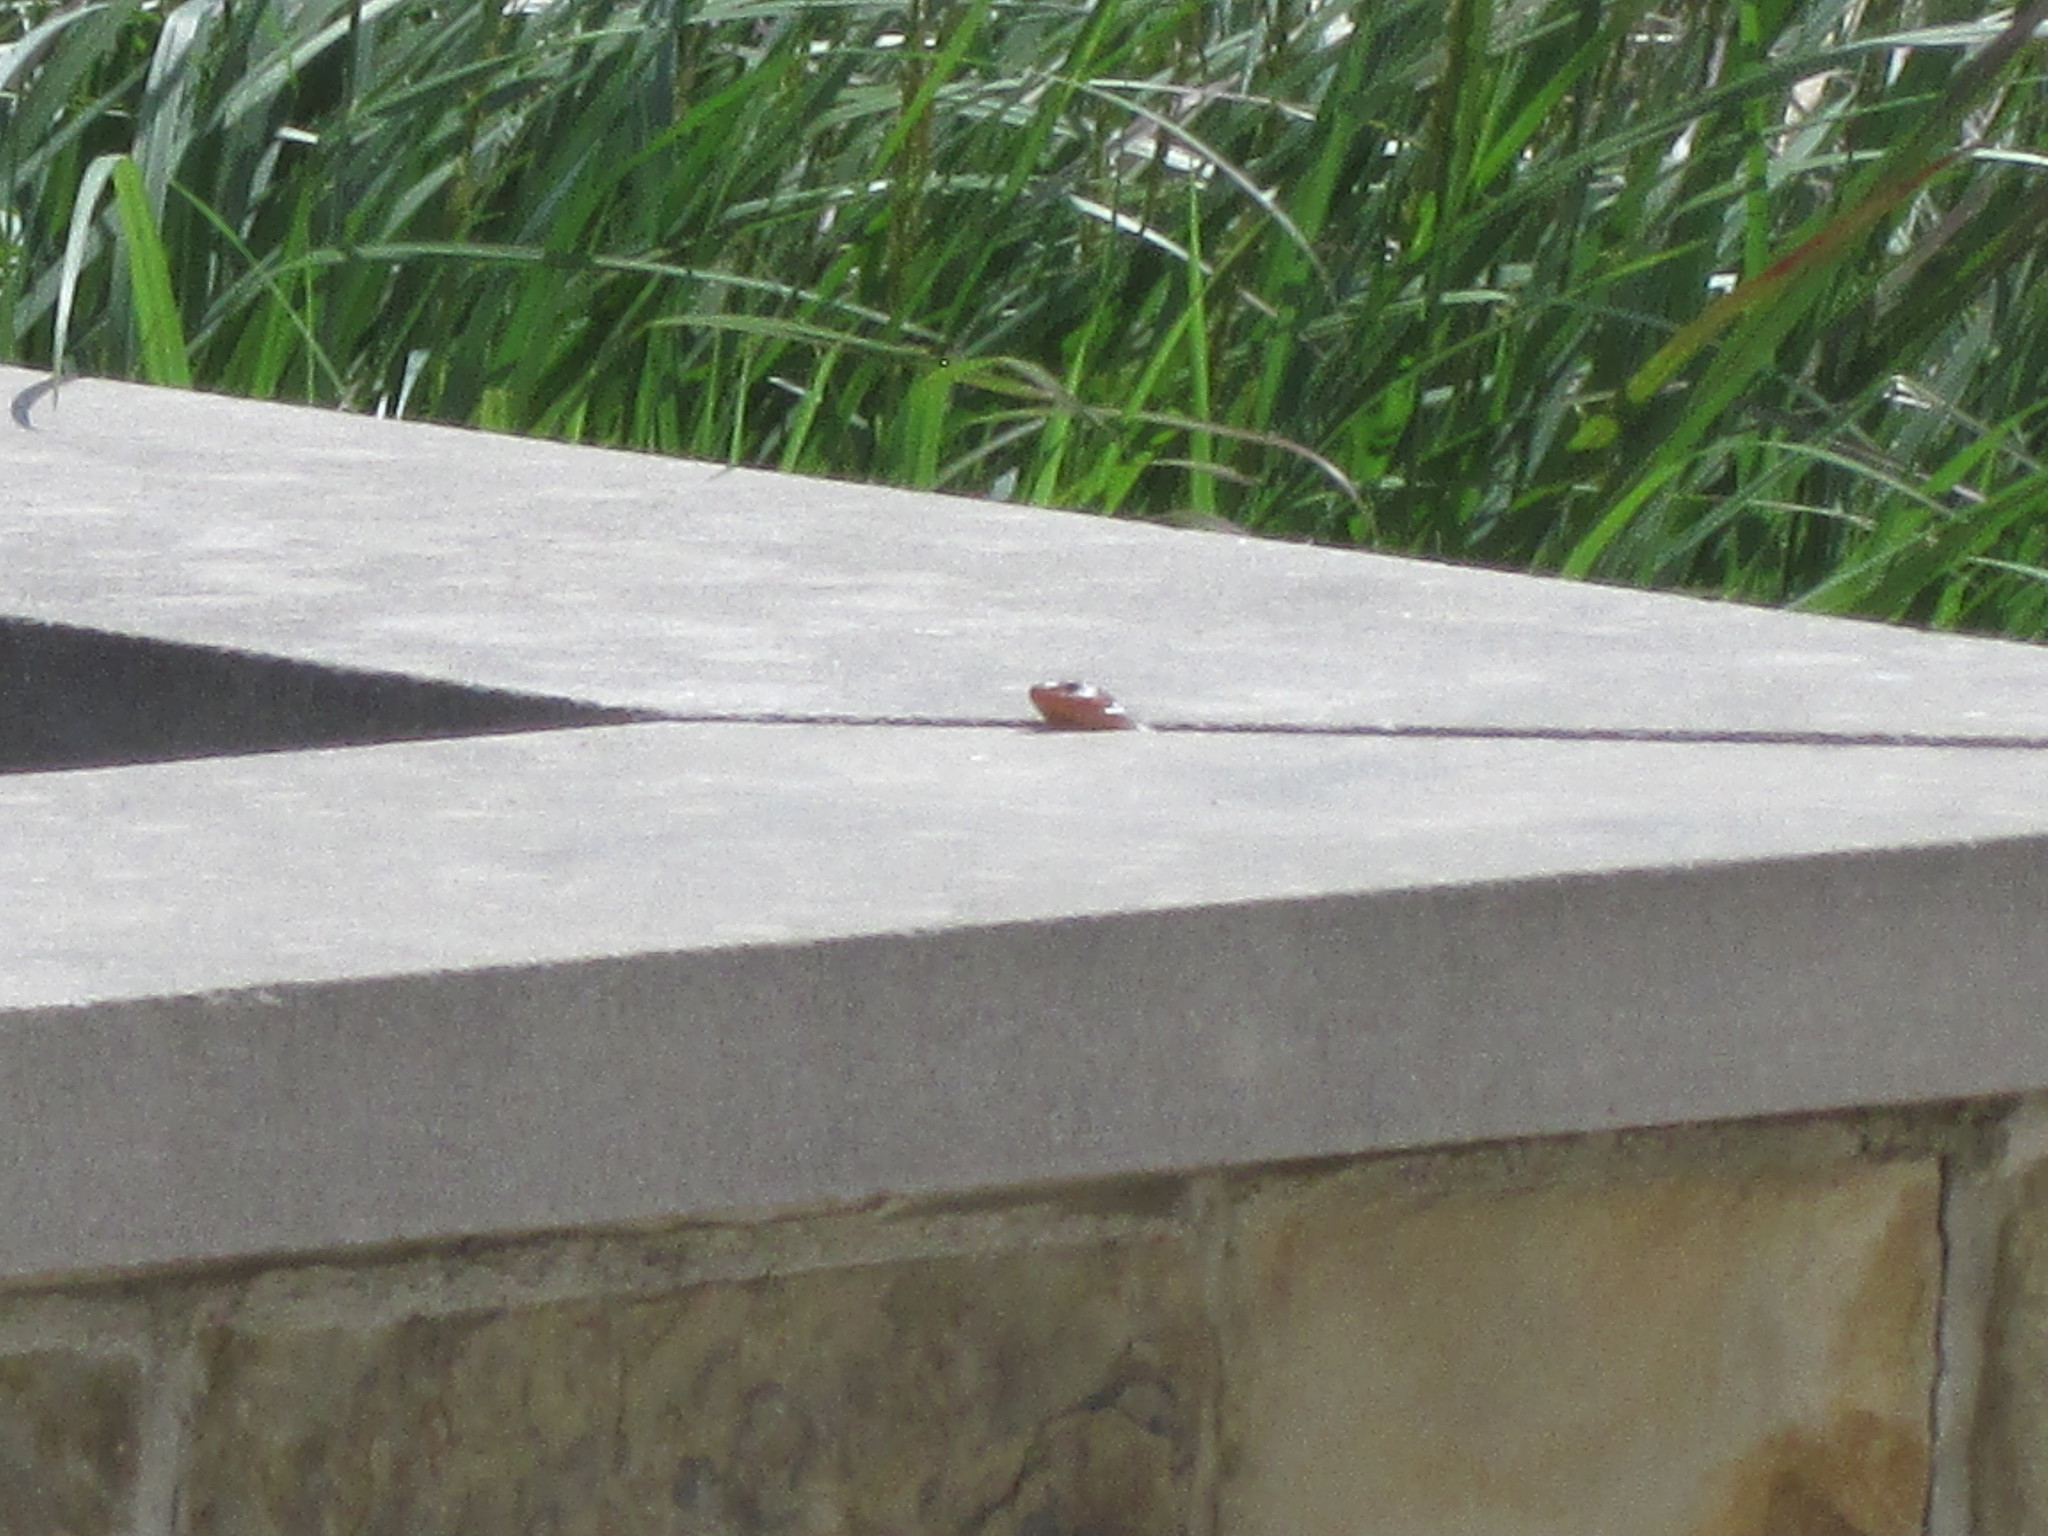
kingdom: Animalia
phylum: Chordata
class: Squamata
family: Scincidae
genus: Plestiodon
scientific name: Plestiodon fasciatus
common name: Five-lined skink
